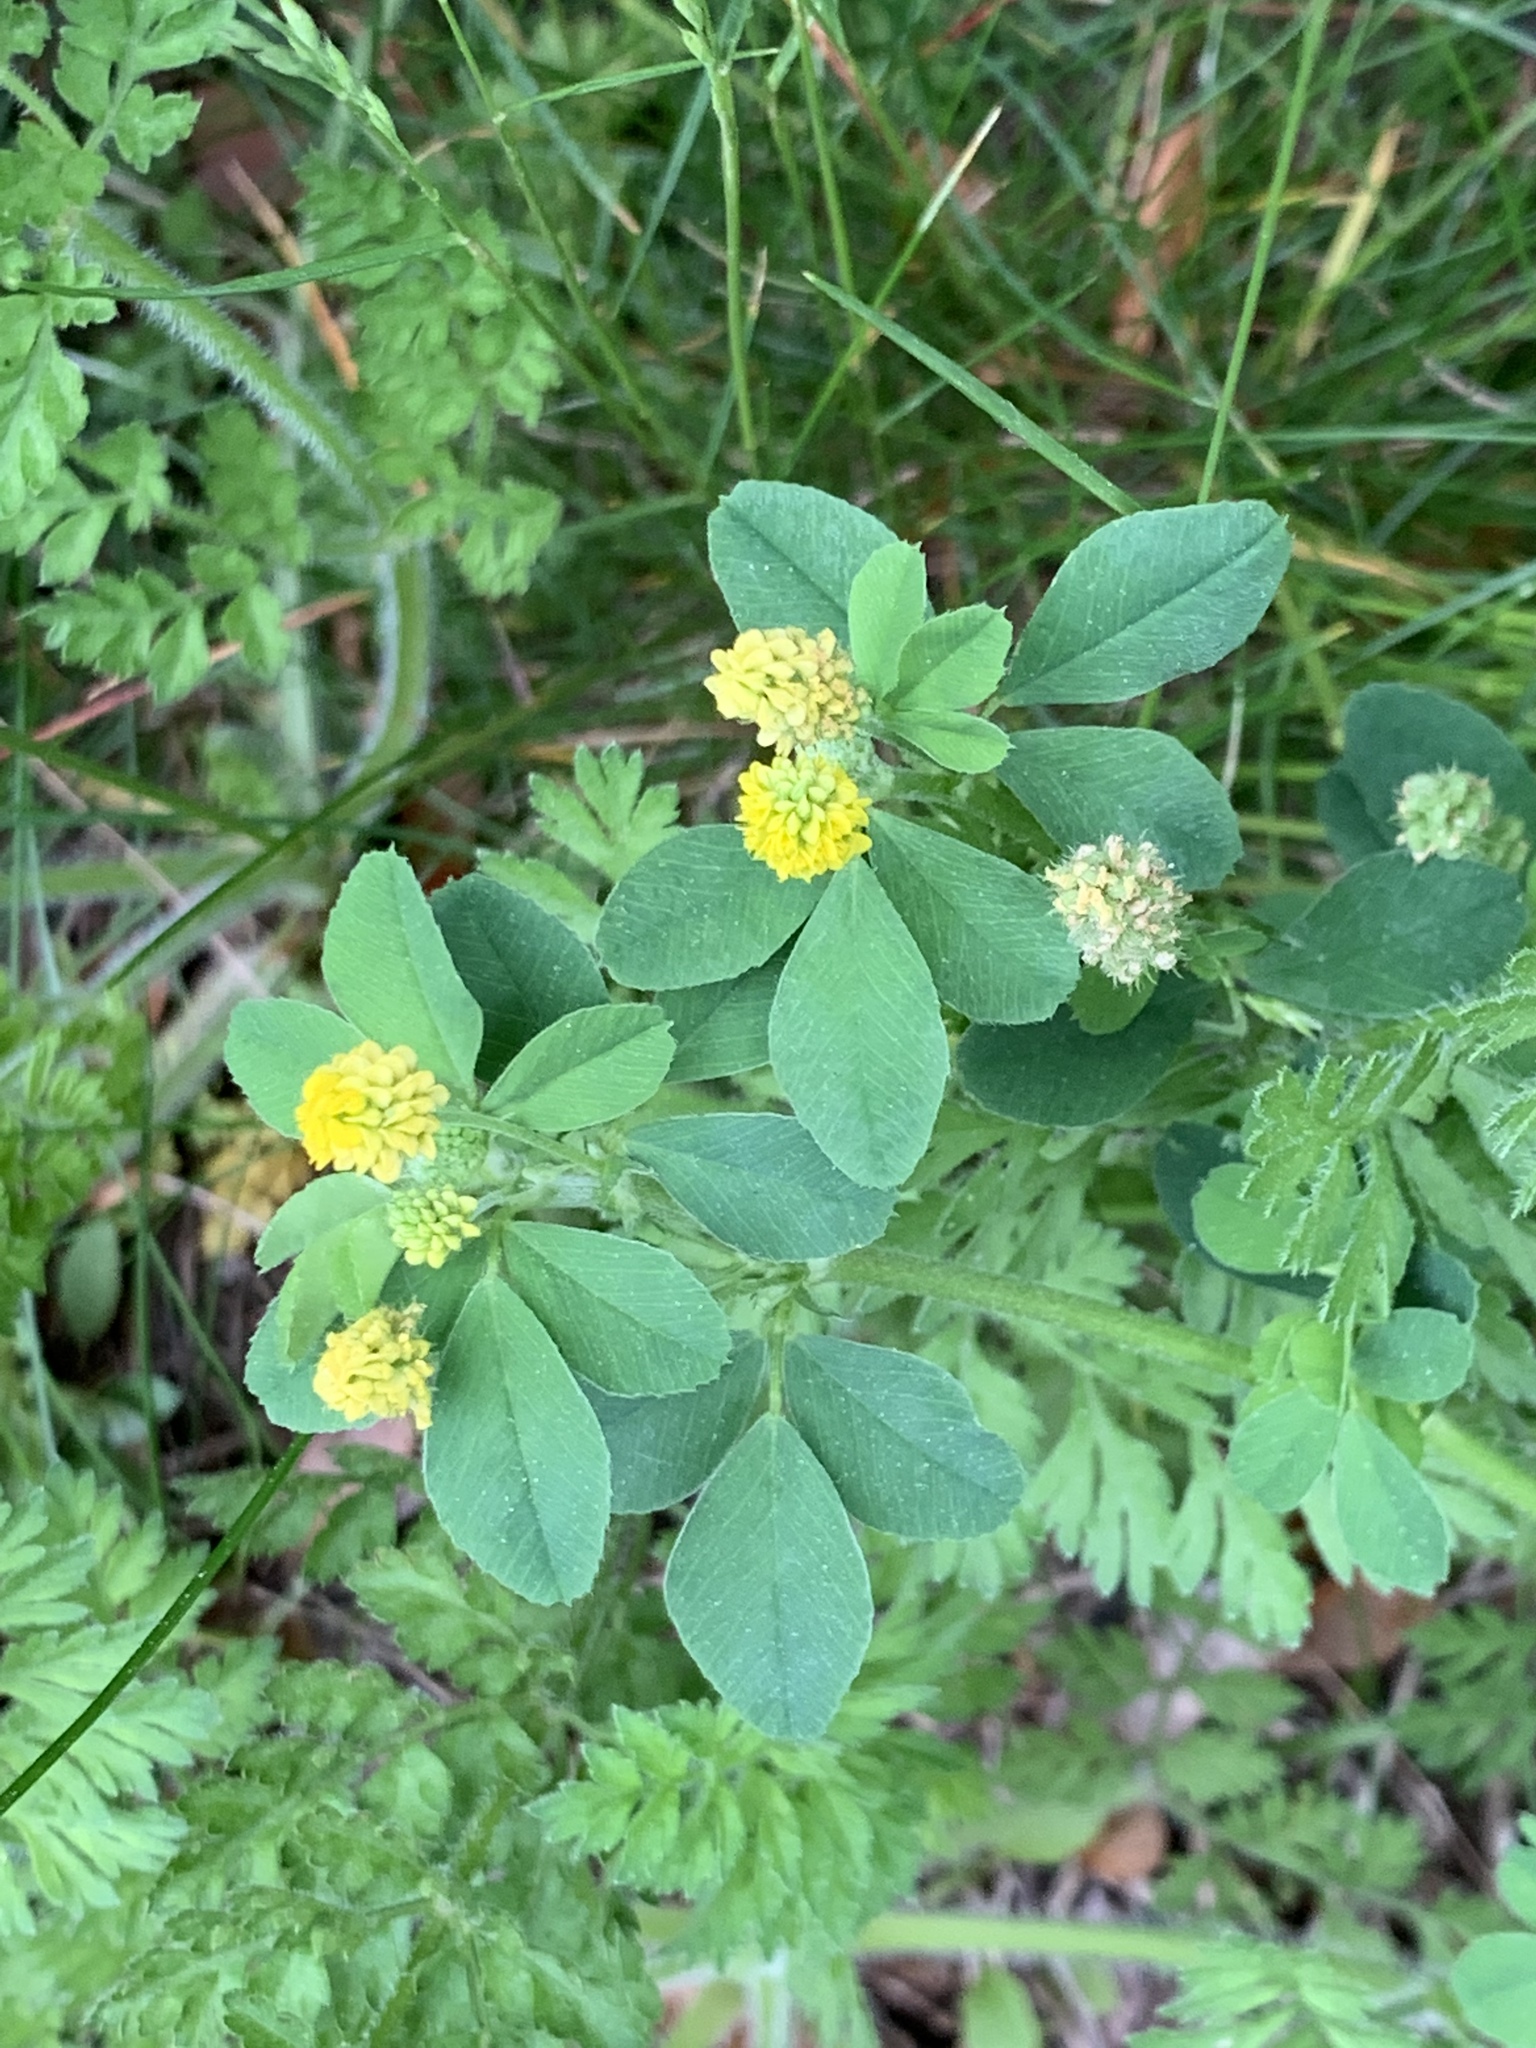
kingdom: Plantae
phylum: Tracheophyta
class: Magnoliopsida
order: Fabales
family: Fabaceae
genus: Medicago
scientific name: Medicago lupulina
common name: Black medick
